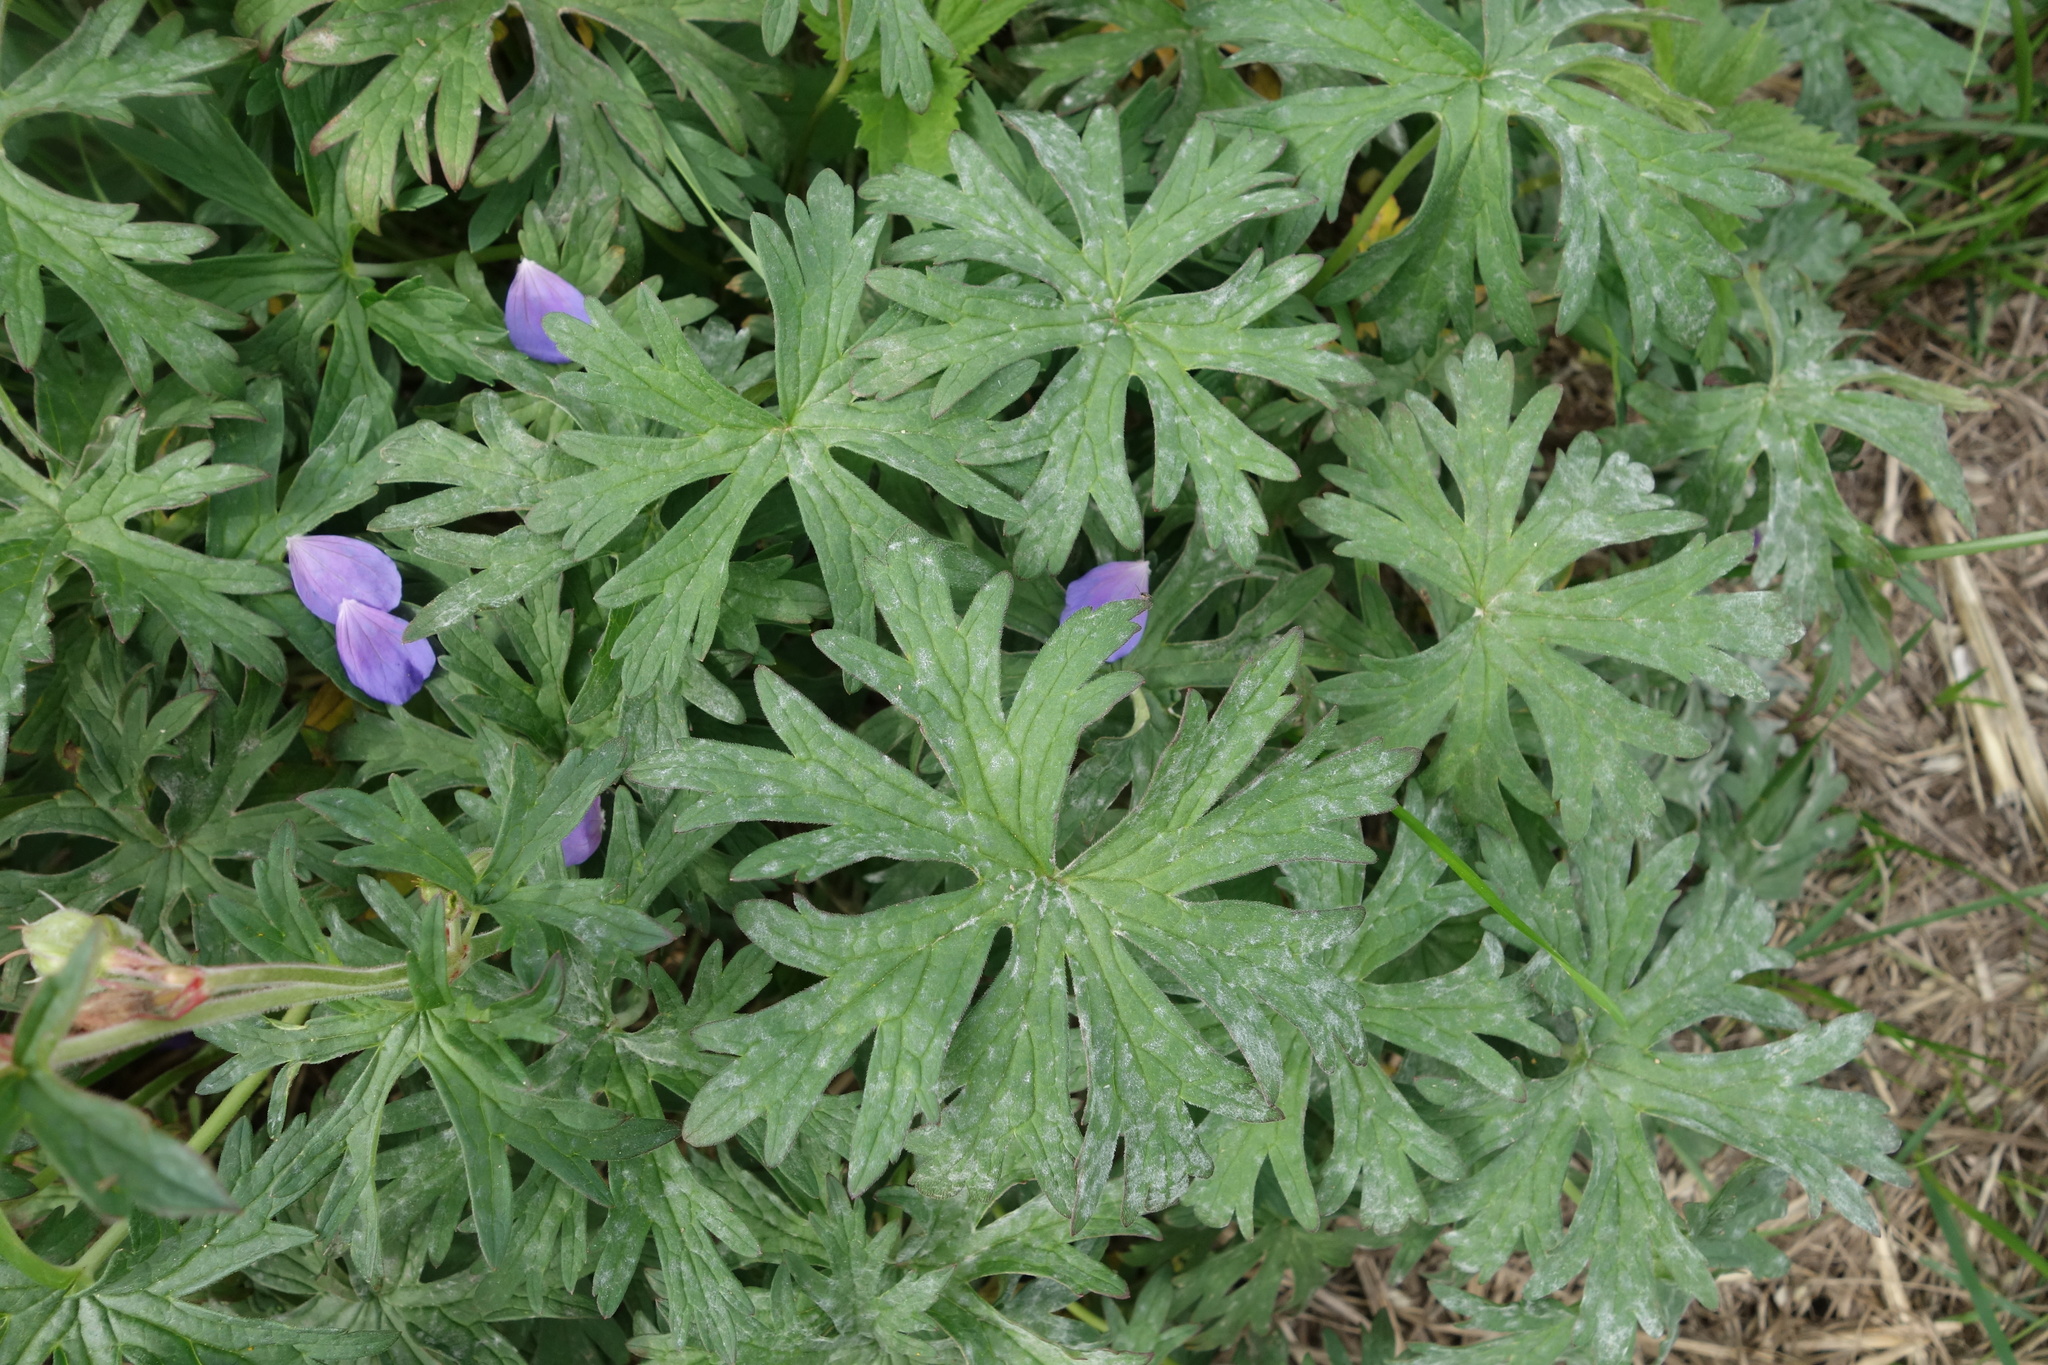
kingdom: Plantae
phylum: Tracheophyta
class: Magnoliopsida
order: Geraniales
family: Geraniaceae
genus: Geranium
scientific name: Geranium pratense
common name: Meadow crane's-bill
